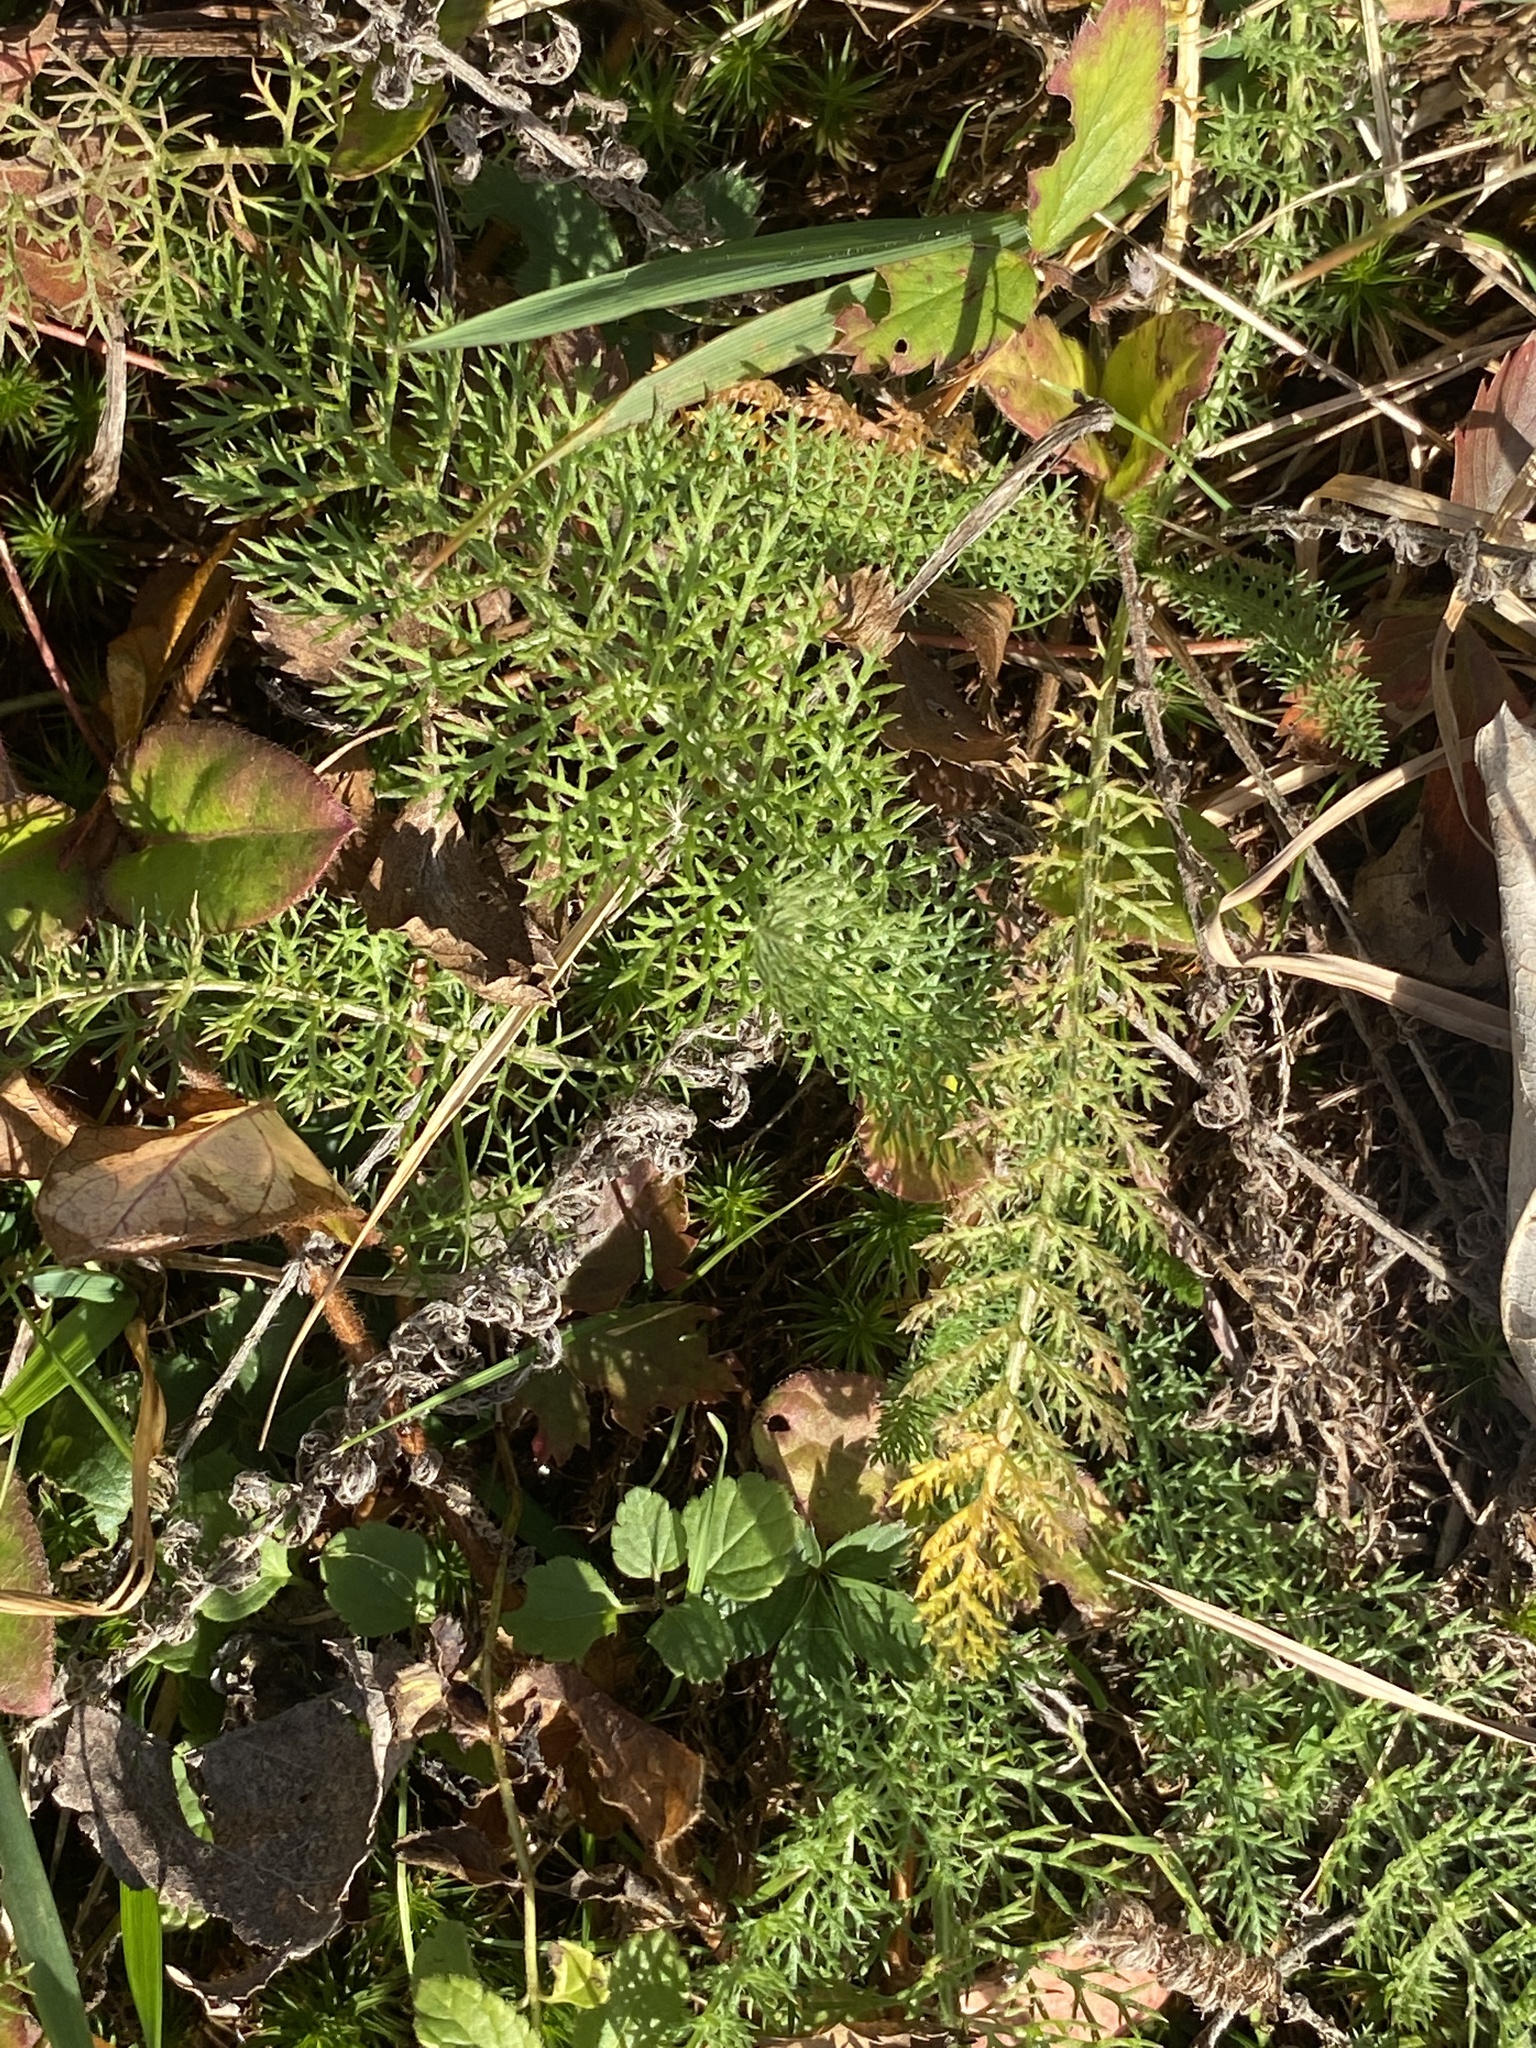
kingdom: Plantae
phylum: Tracheophyta
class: Magnoliopsida
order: Asterales
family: Asteraceae
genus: Achillea
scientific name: Achillea millefolium
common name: Yarrow
